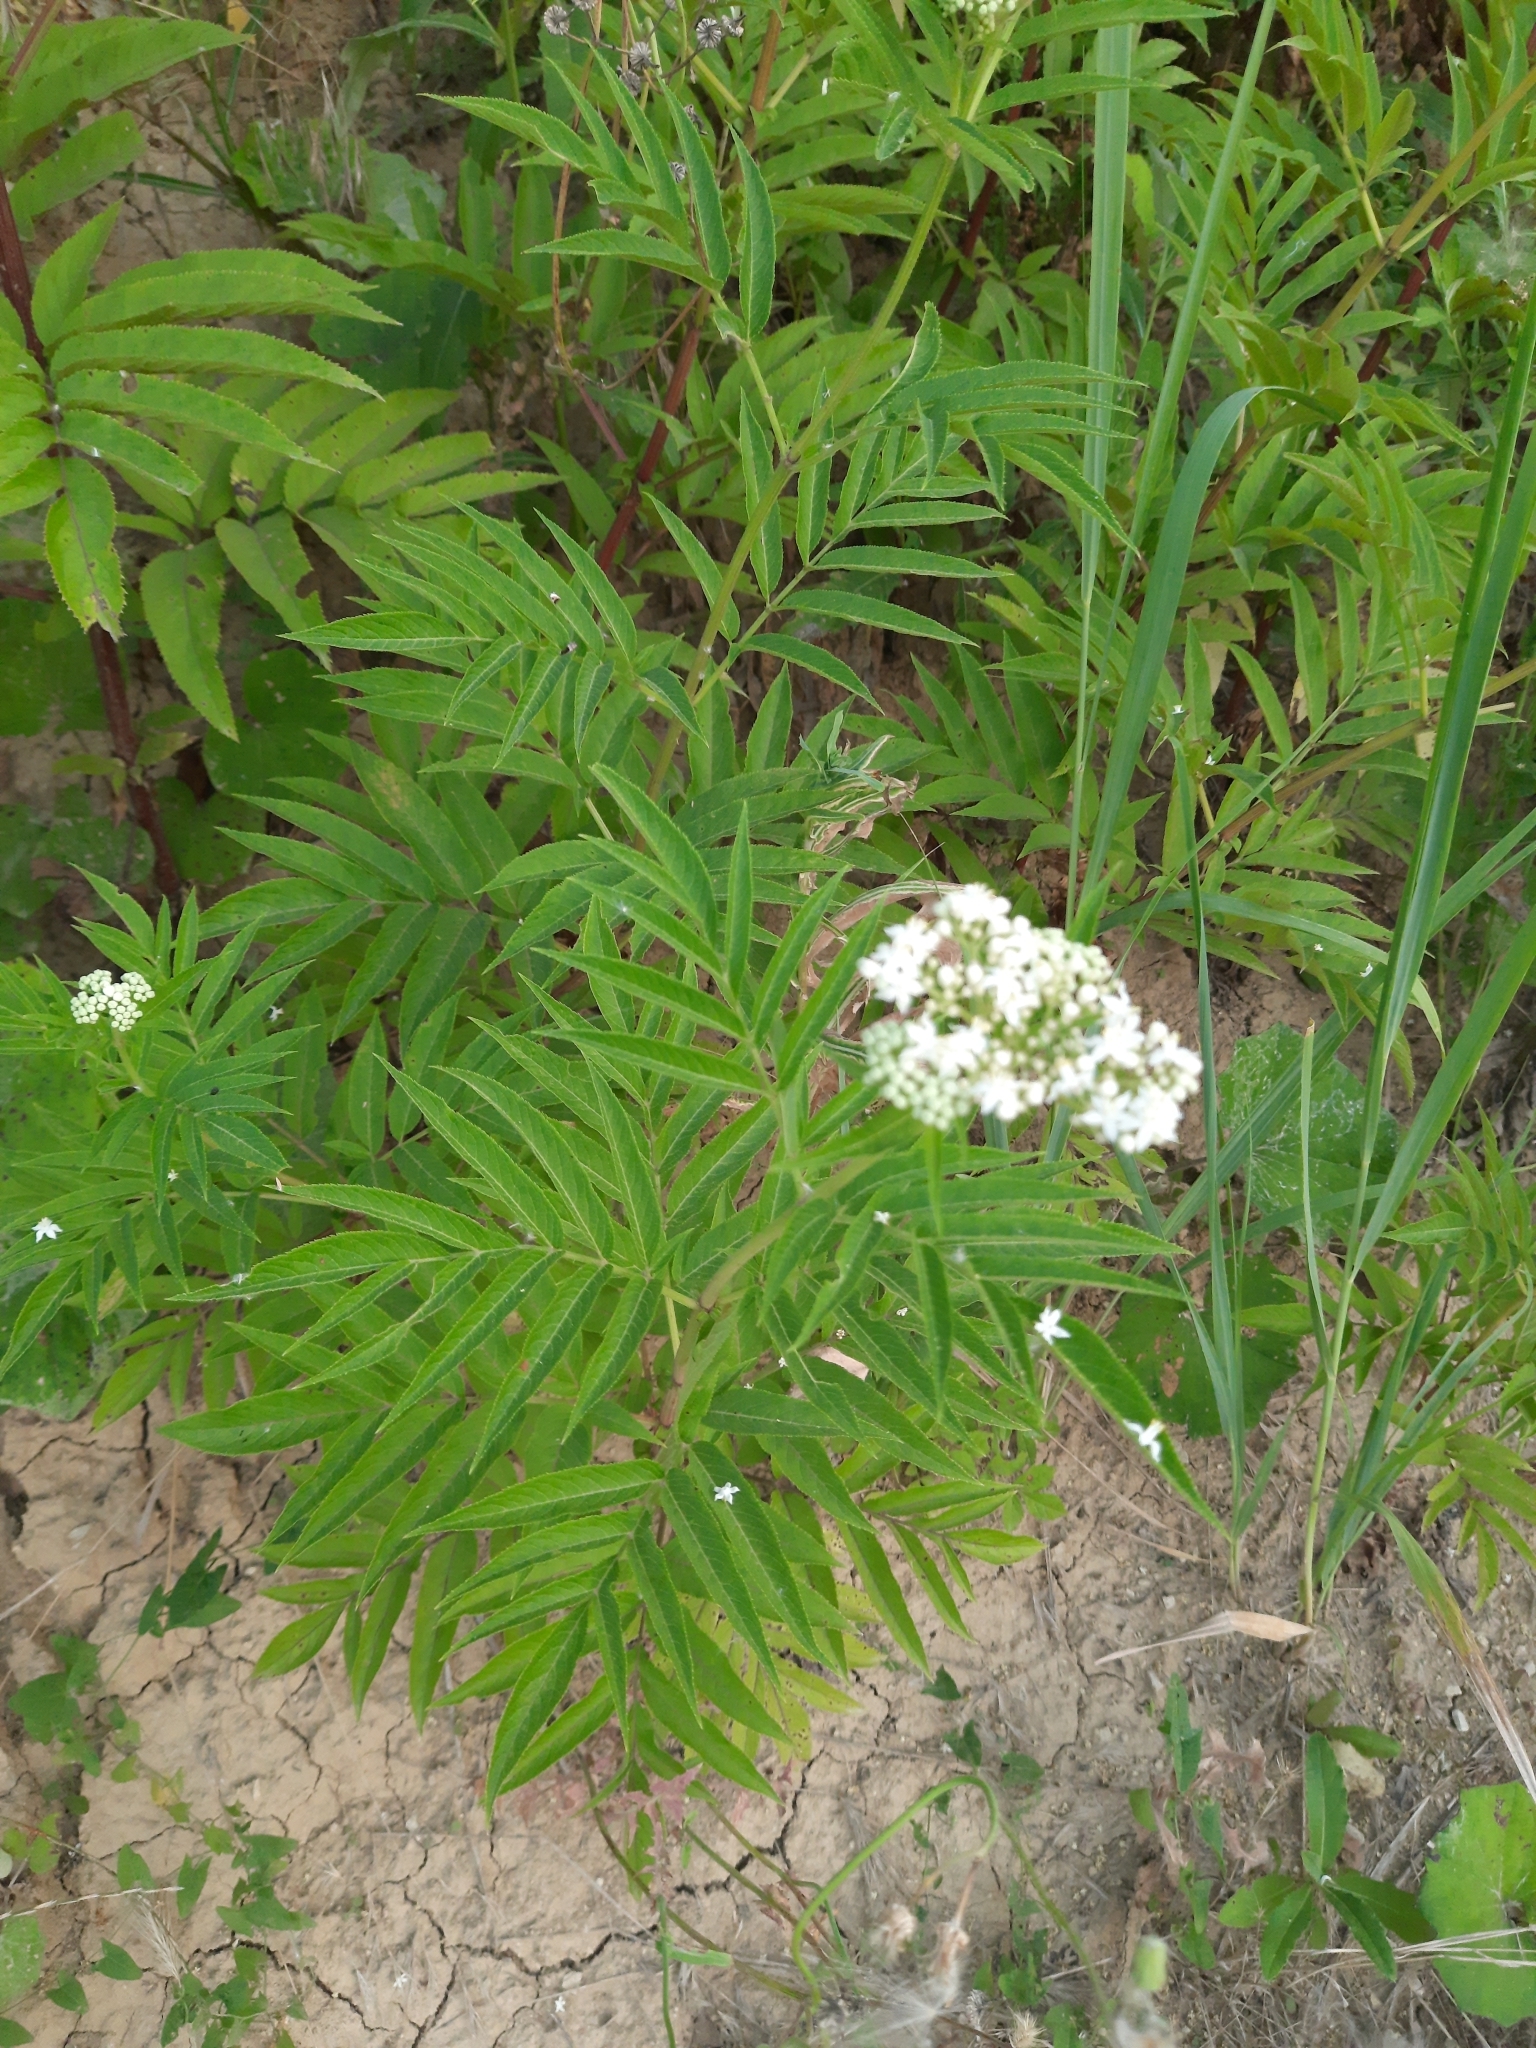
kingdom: Plantae
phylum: Tracheophyta
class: Magnoliopsida
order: Dipsacales
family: Viburnaceae
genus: Sambucus
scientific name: Sambucus ebulus
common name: Dwarf elder
